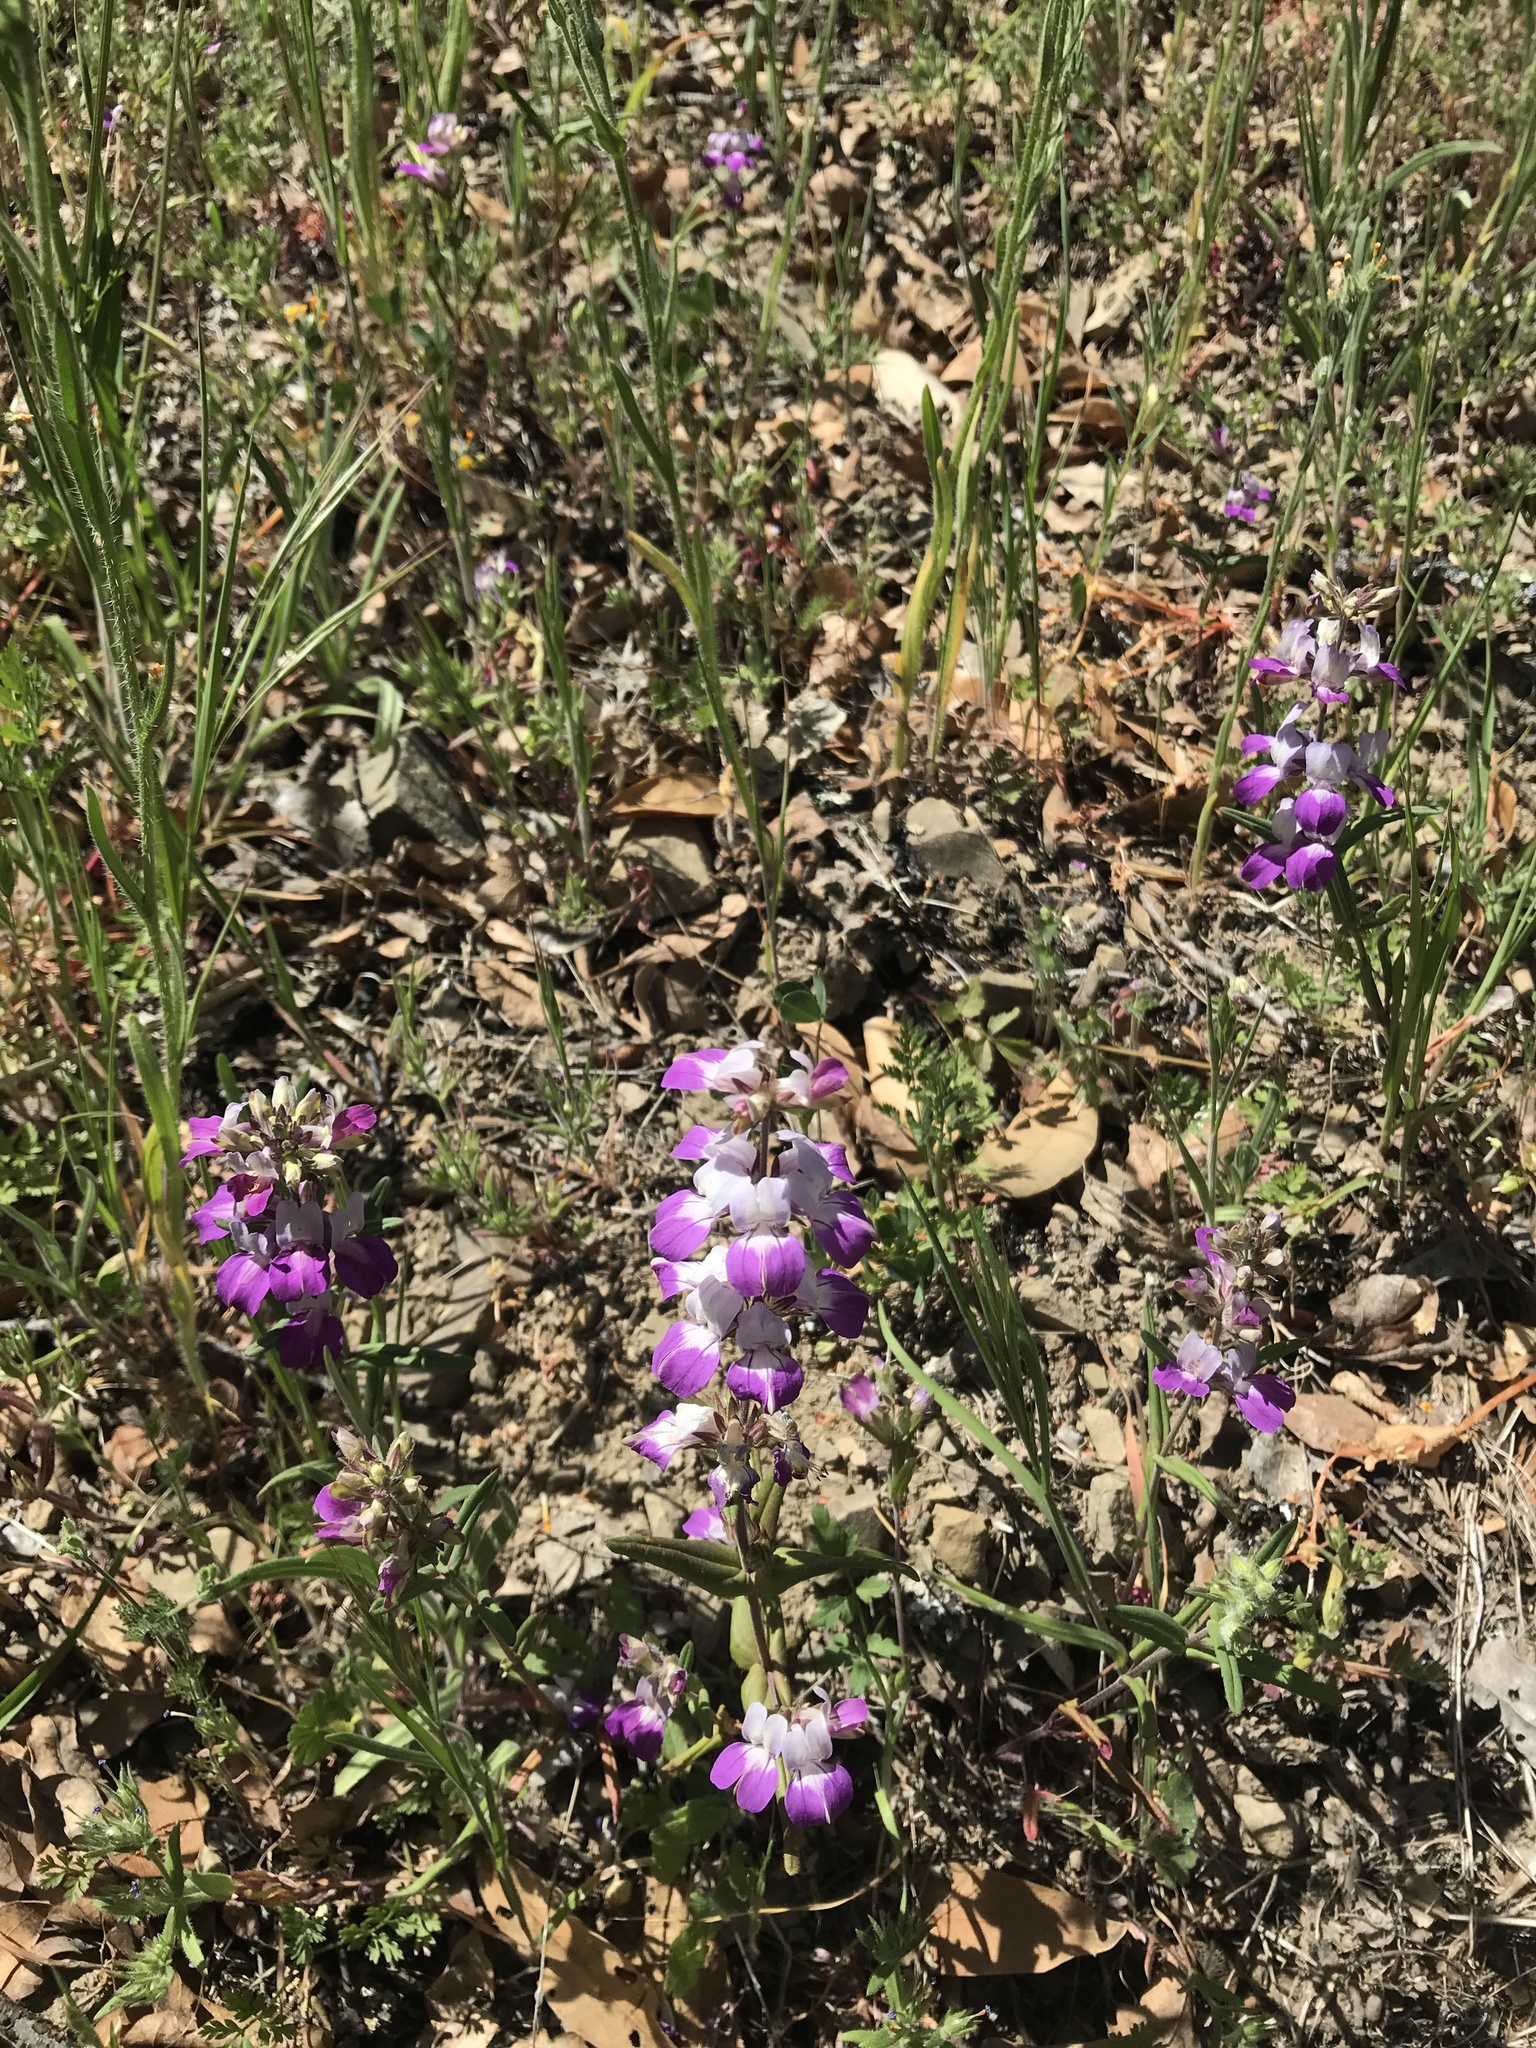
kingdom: Plantae
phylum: Tracheophyta
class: Magnoliopsida
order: Lamiales
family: Plantaginaceae
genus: Collinsia
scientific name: Collinsia heterophylla
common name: Chinese-houses
